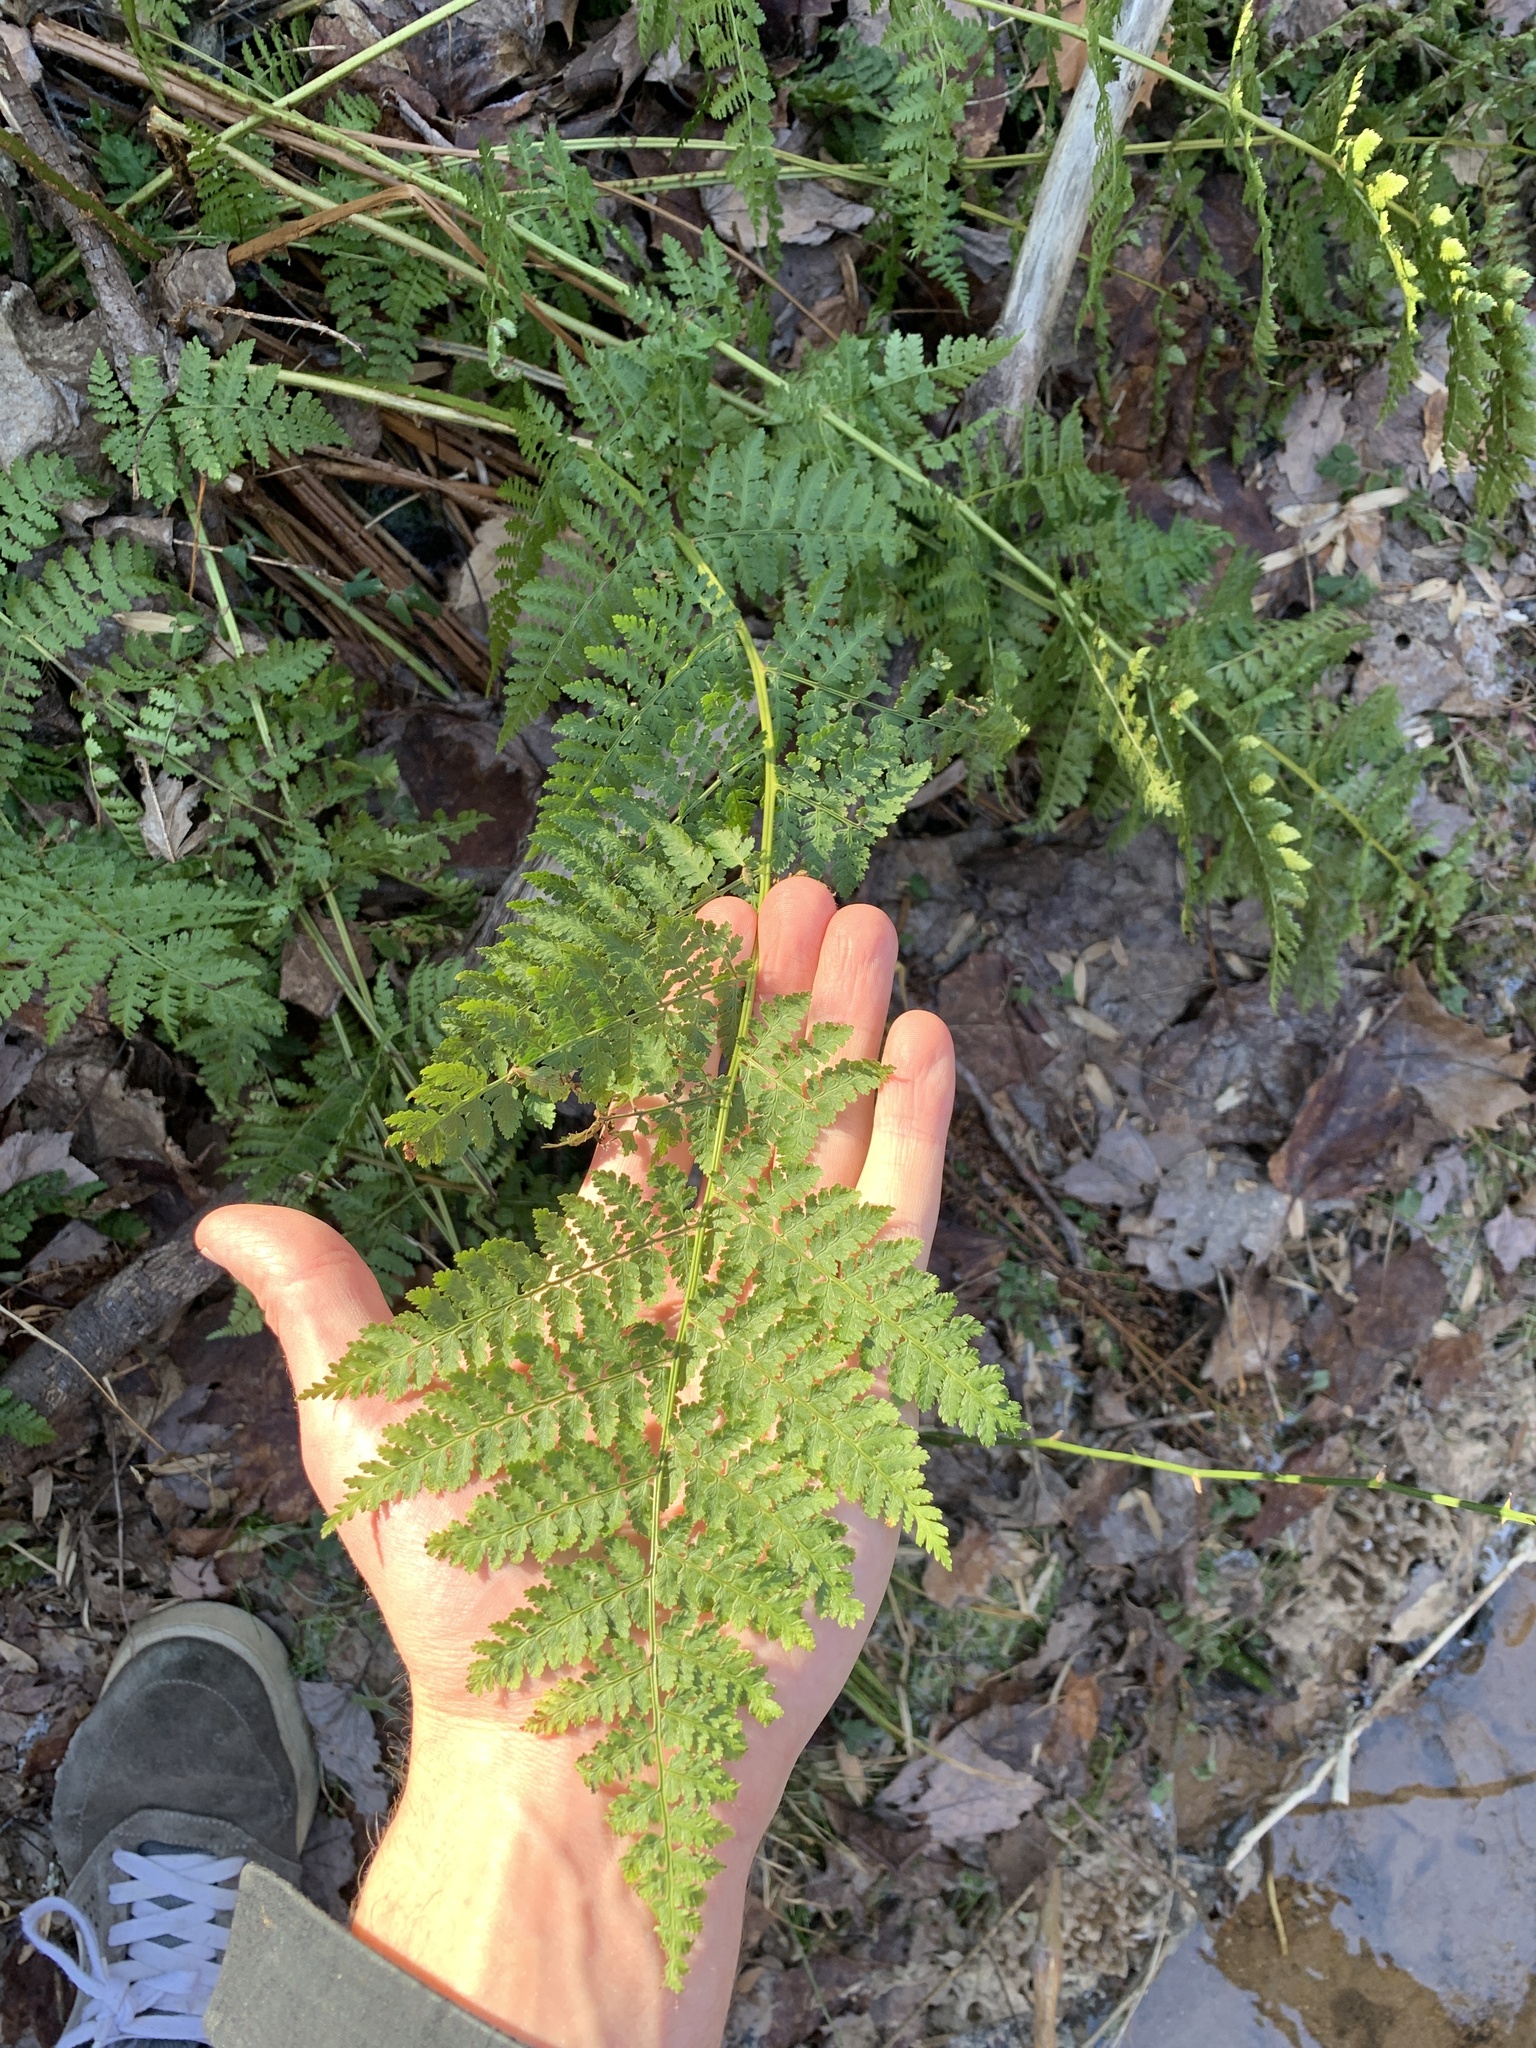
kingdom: Plantae
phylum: Tracheophyta
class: Polypodiopsida
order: Polypodiales
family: Dryopteridaceae
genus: Dryopteris
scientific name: Dryopteris intermedia
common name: Evergreen wood fern
